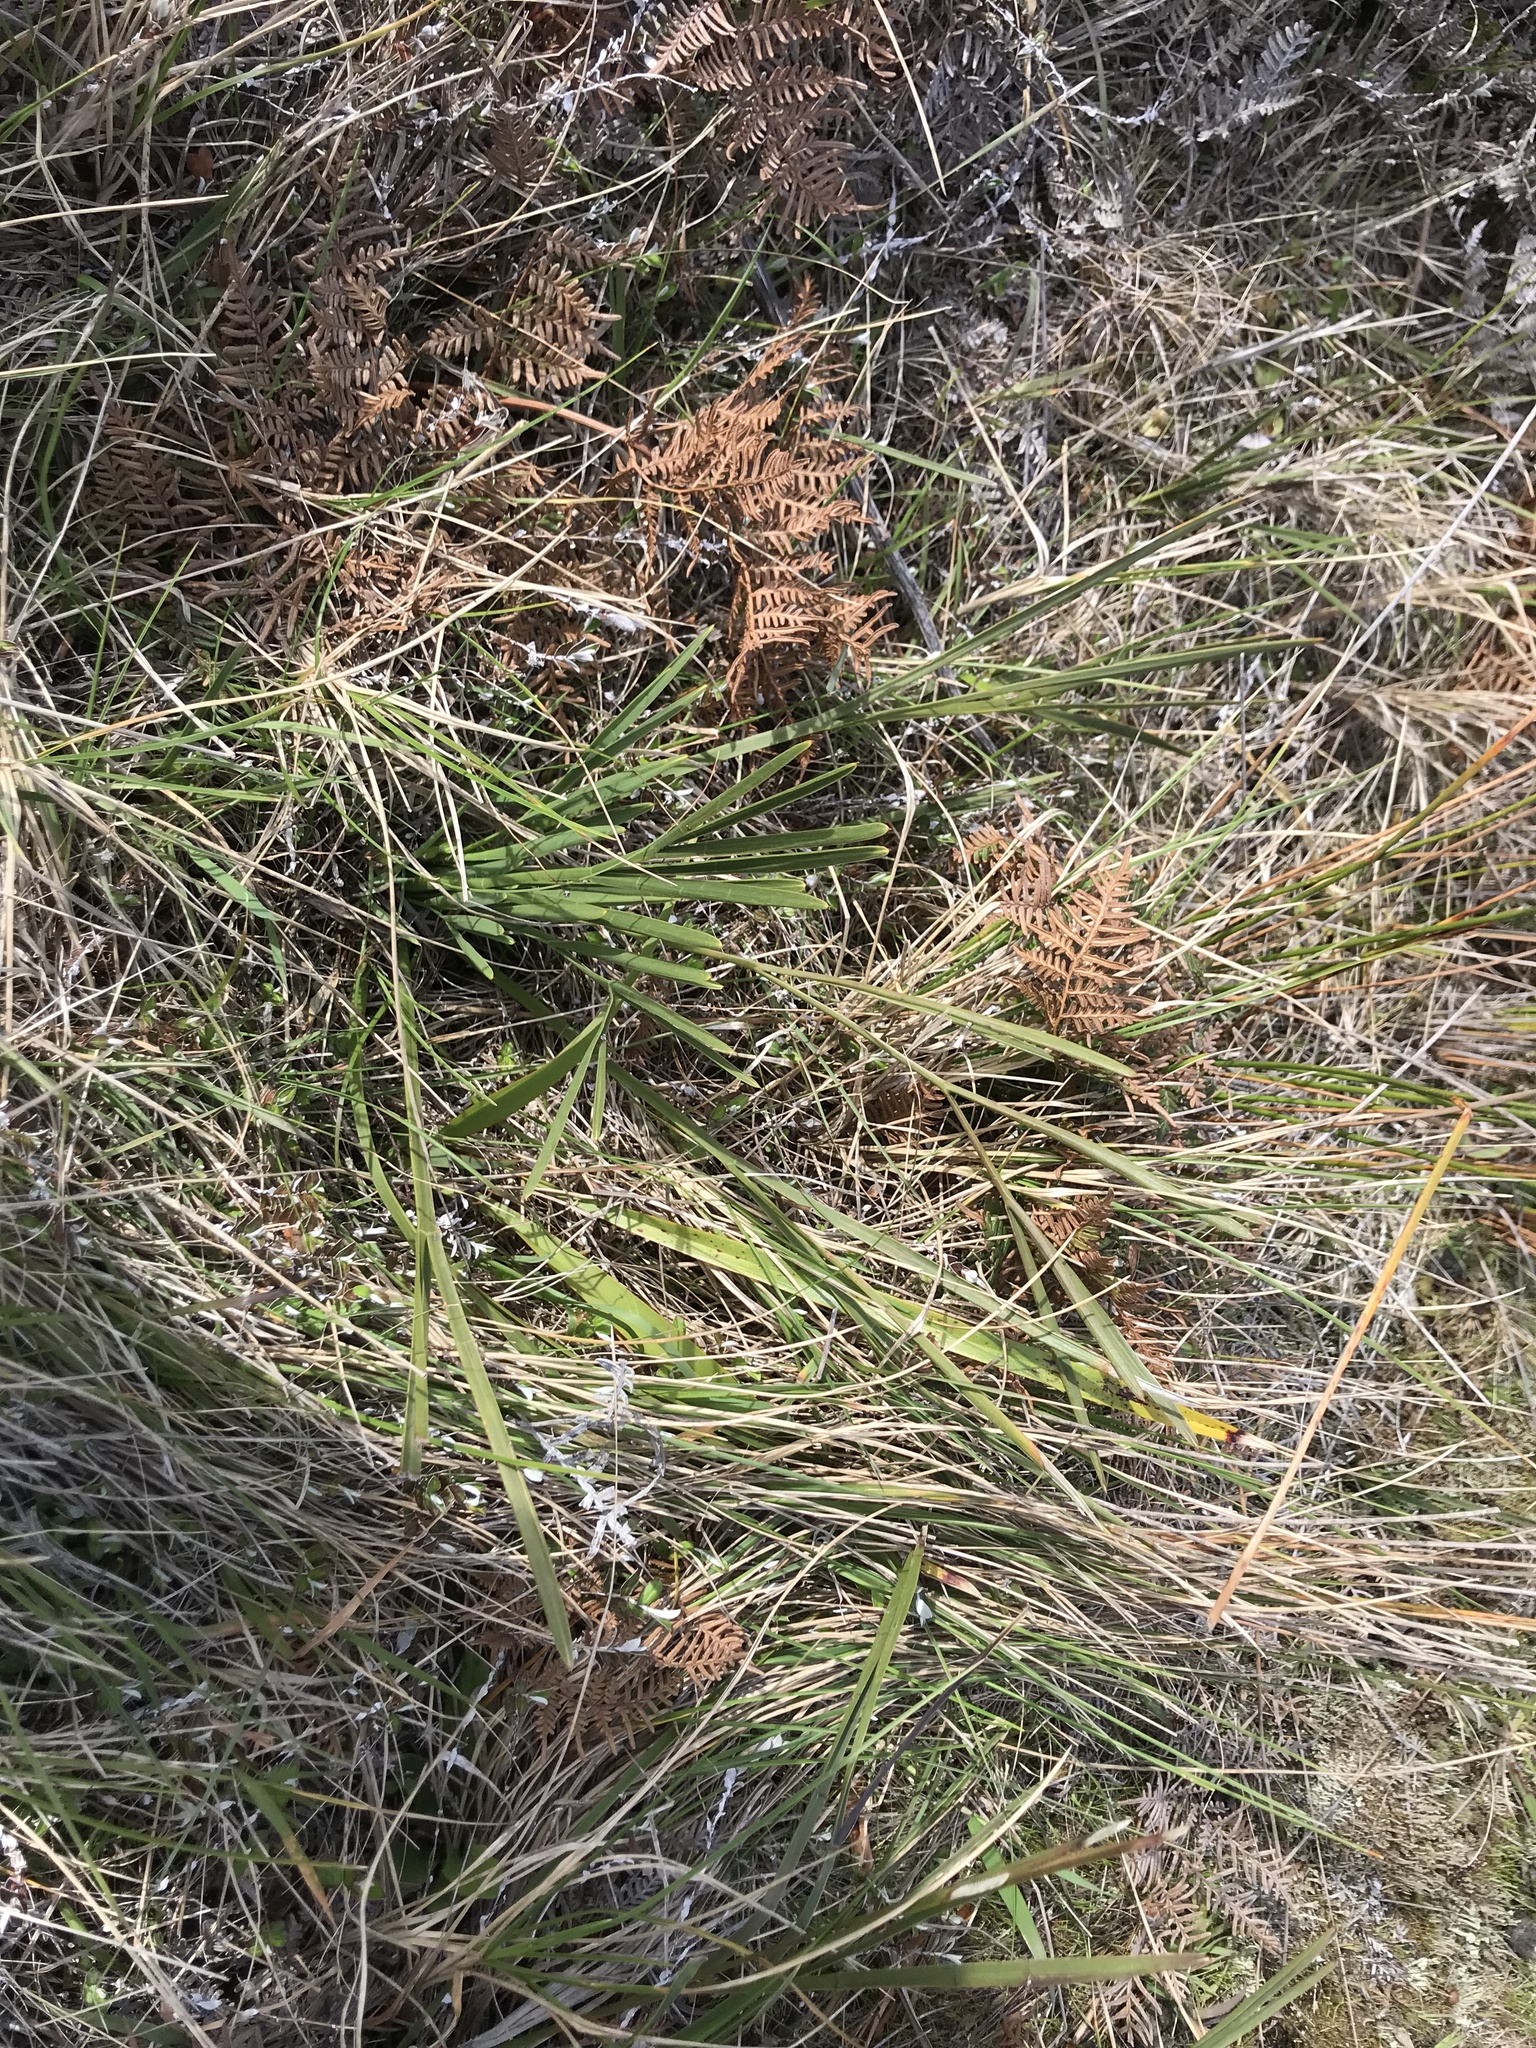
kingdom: Plantae
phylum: Tracheophyta
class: Magnoliopsida
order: Apiales
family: Apiaceae
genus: Aciphylla
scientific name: Aciphylla traversii
